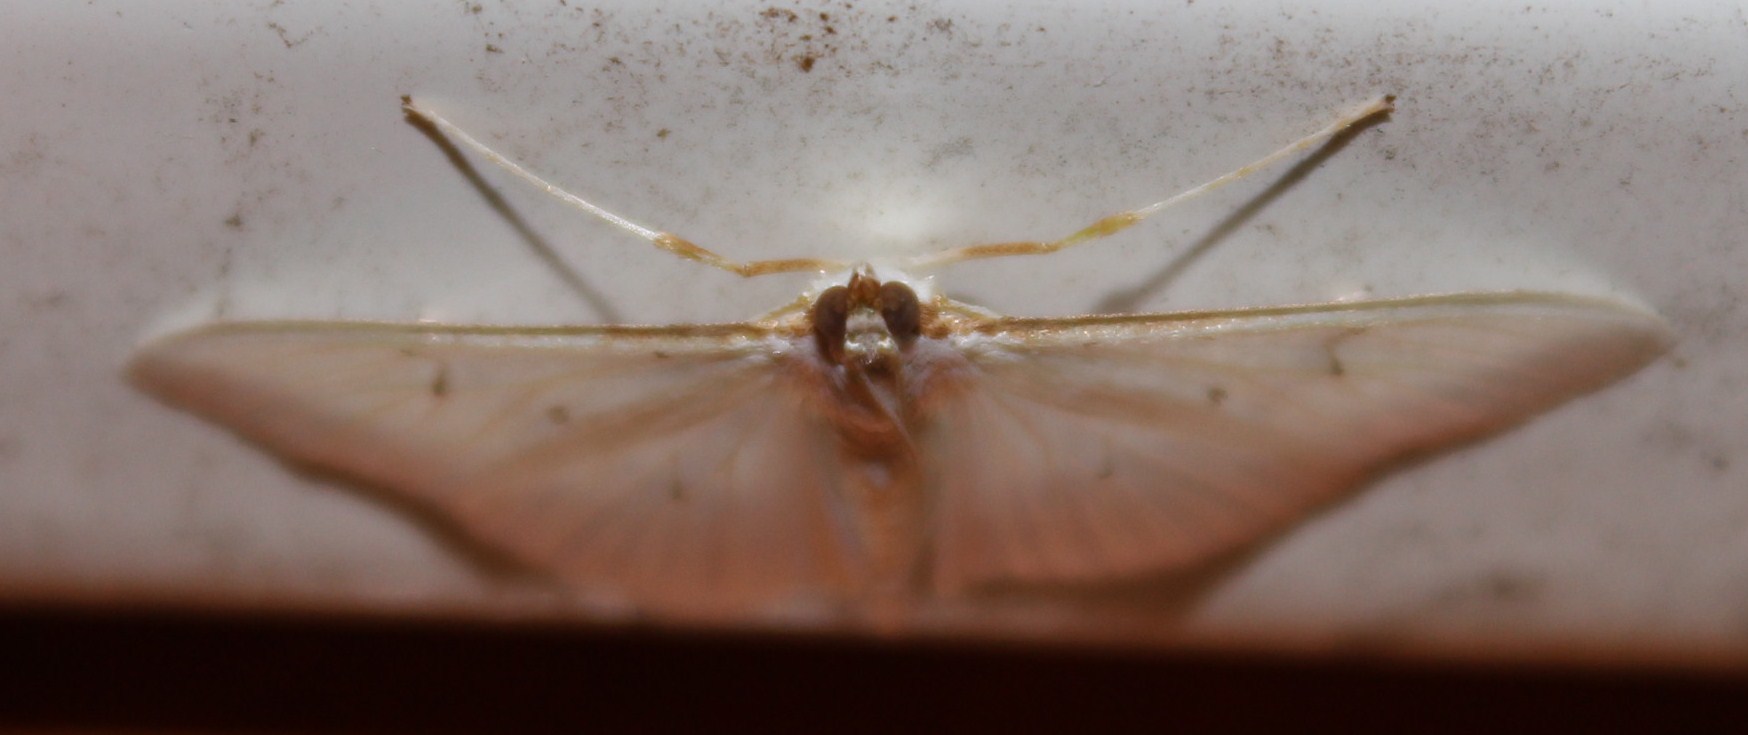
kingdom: Animalia
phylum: Arthropoda
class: Insecta
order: Lepidoptera
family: Crambidae
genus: Palpita
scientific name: Palpita vitrealis
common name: Olive-tree pearl
